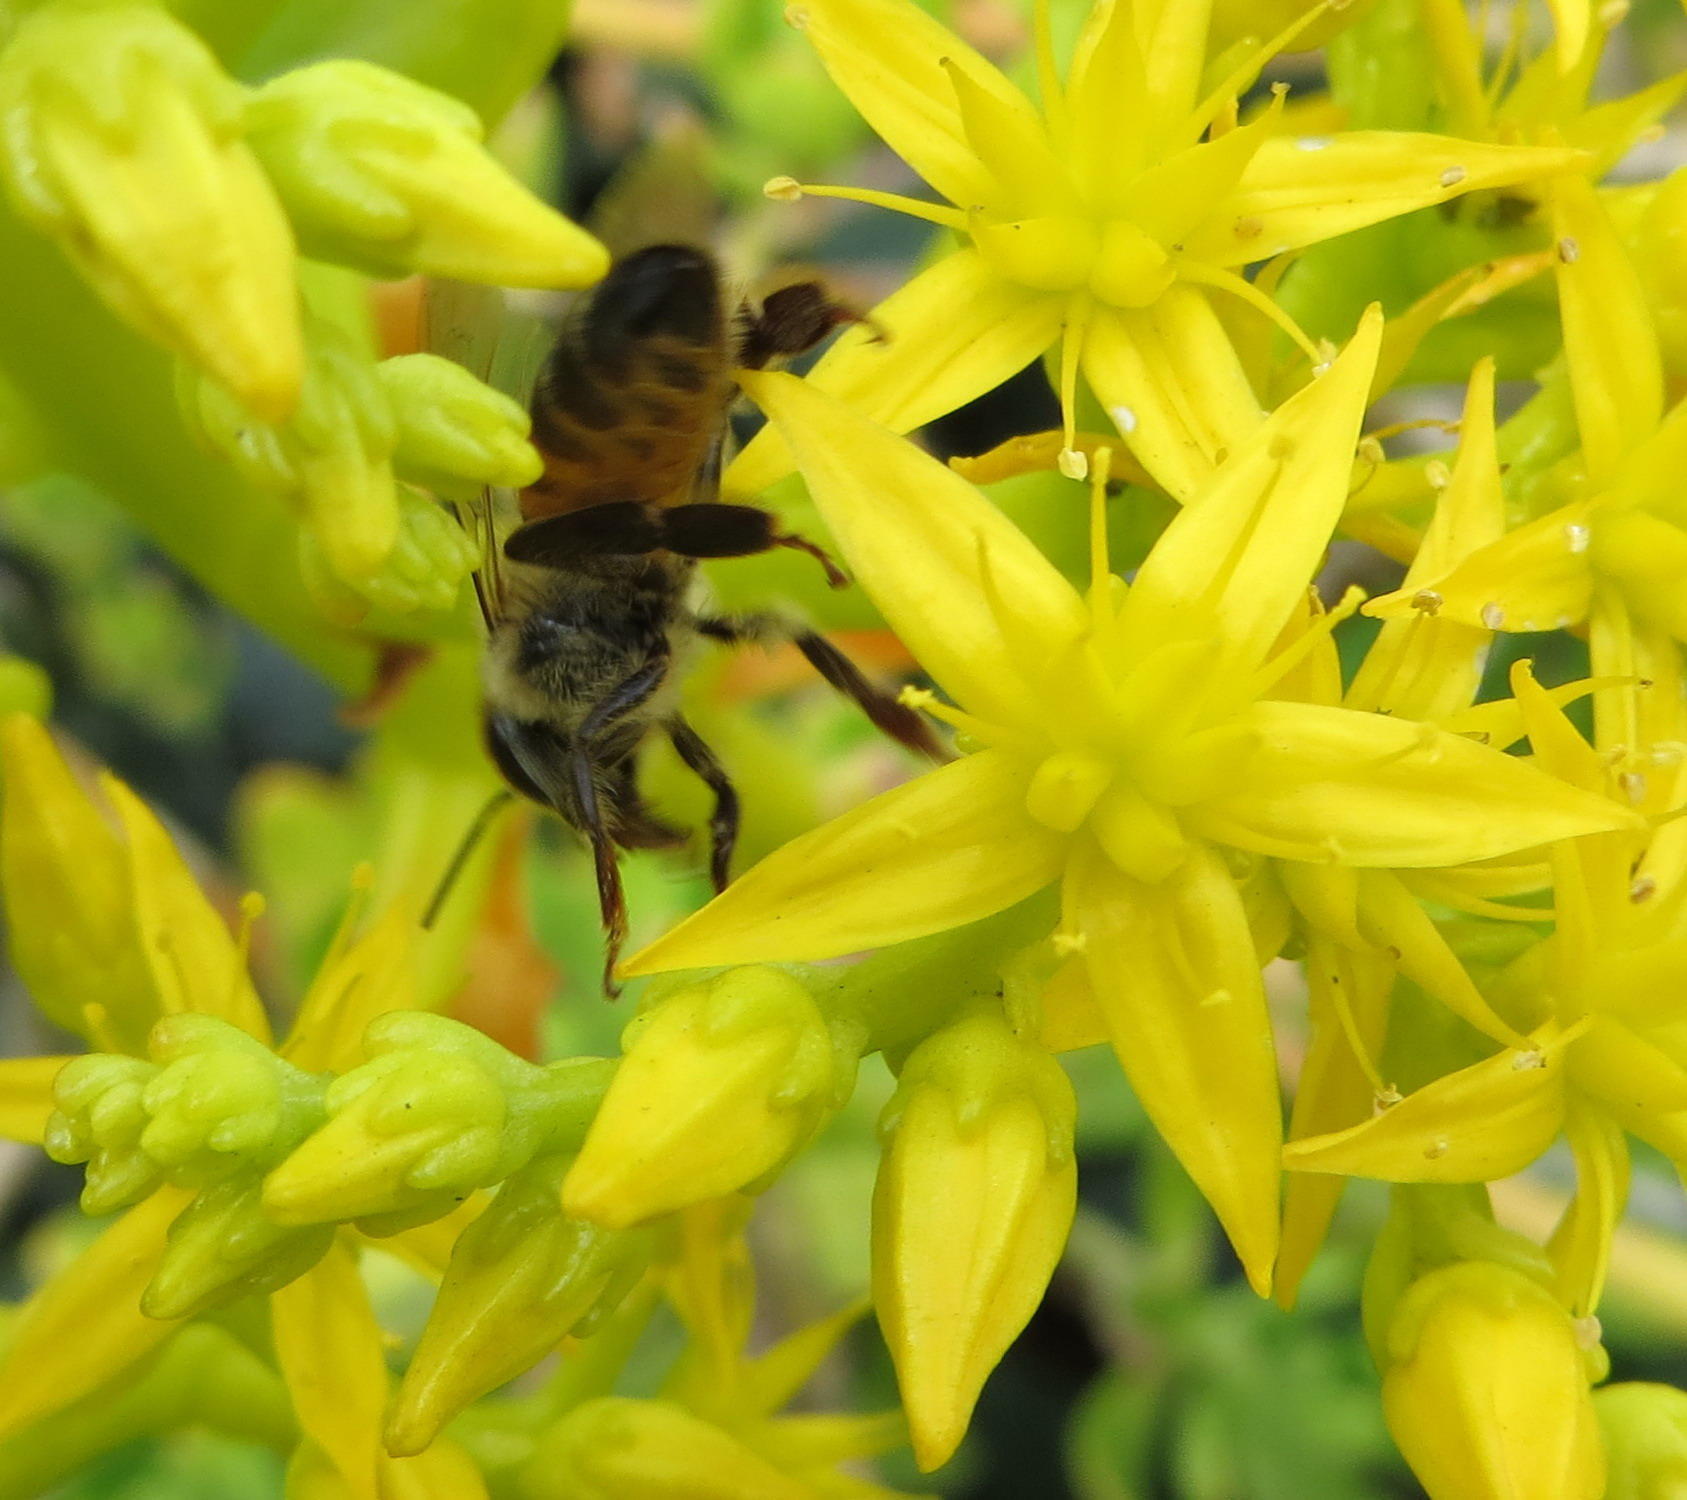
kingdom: Animalia
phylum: Arthropoda
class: Insecta
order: Hymenoptera
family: Apidae
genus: Apis
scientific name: Apis mellifera
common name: Honey bee
